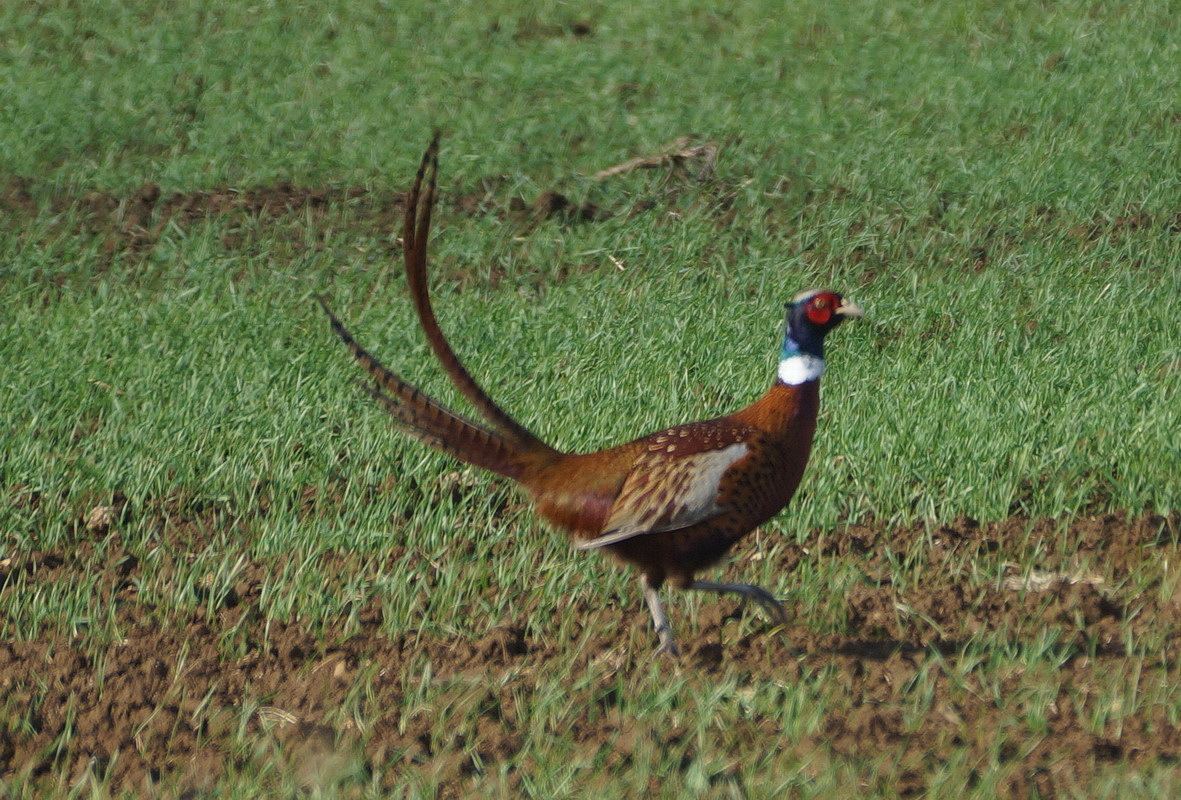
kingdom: Animalia
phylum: Chordata
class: Aves
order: Galliformes
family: Phasianidae
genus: Phasianus
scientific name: Phasianus colchicus
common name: Common pheasant
